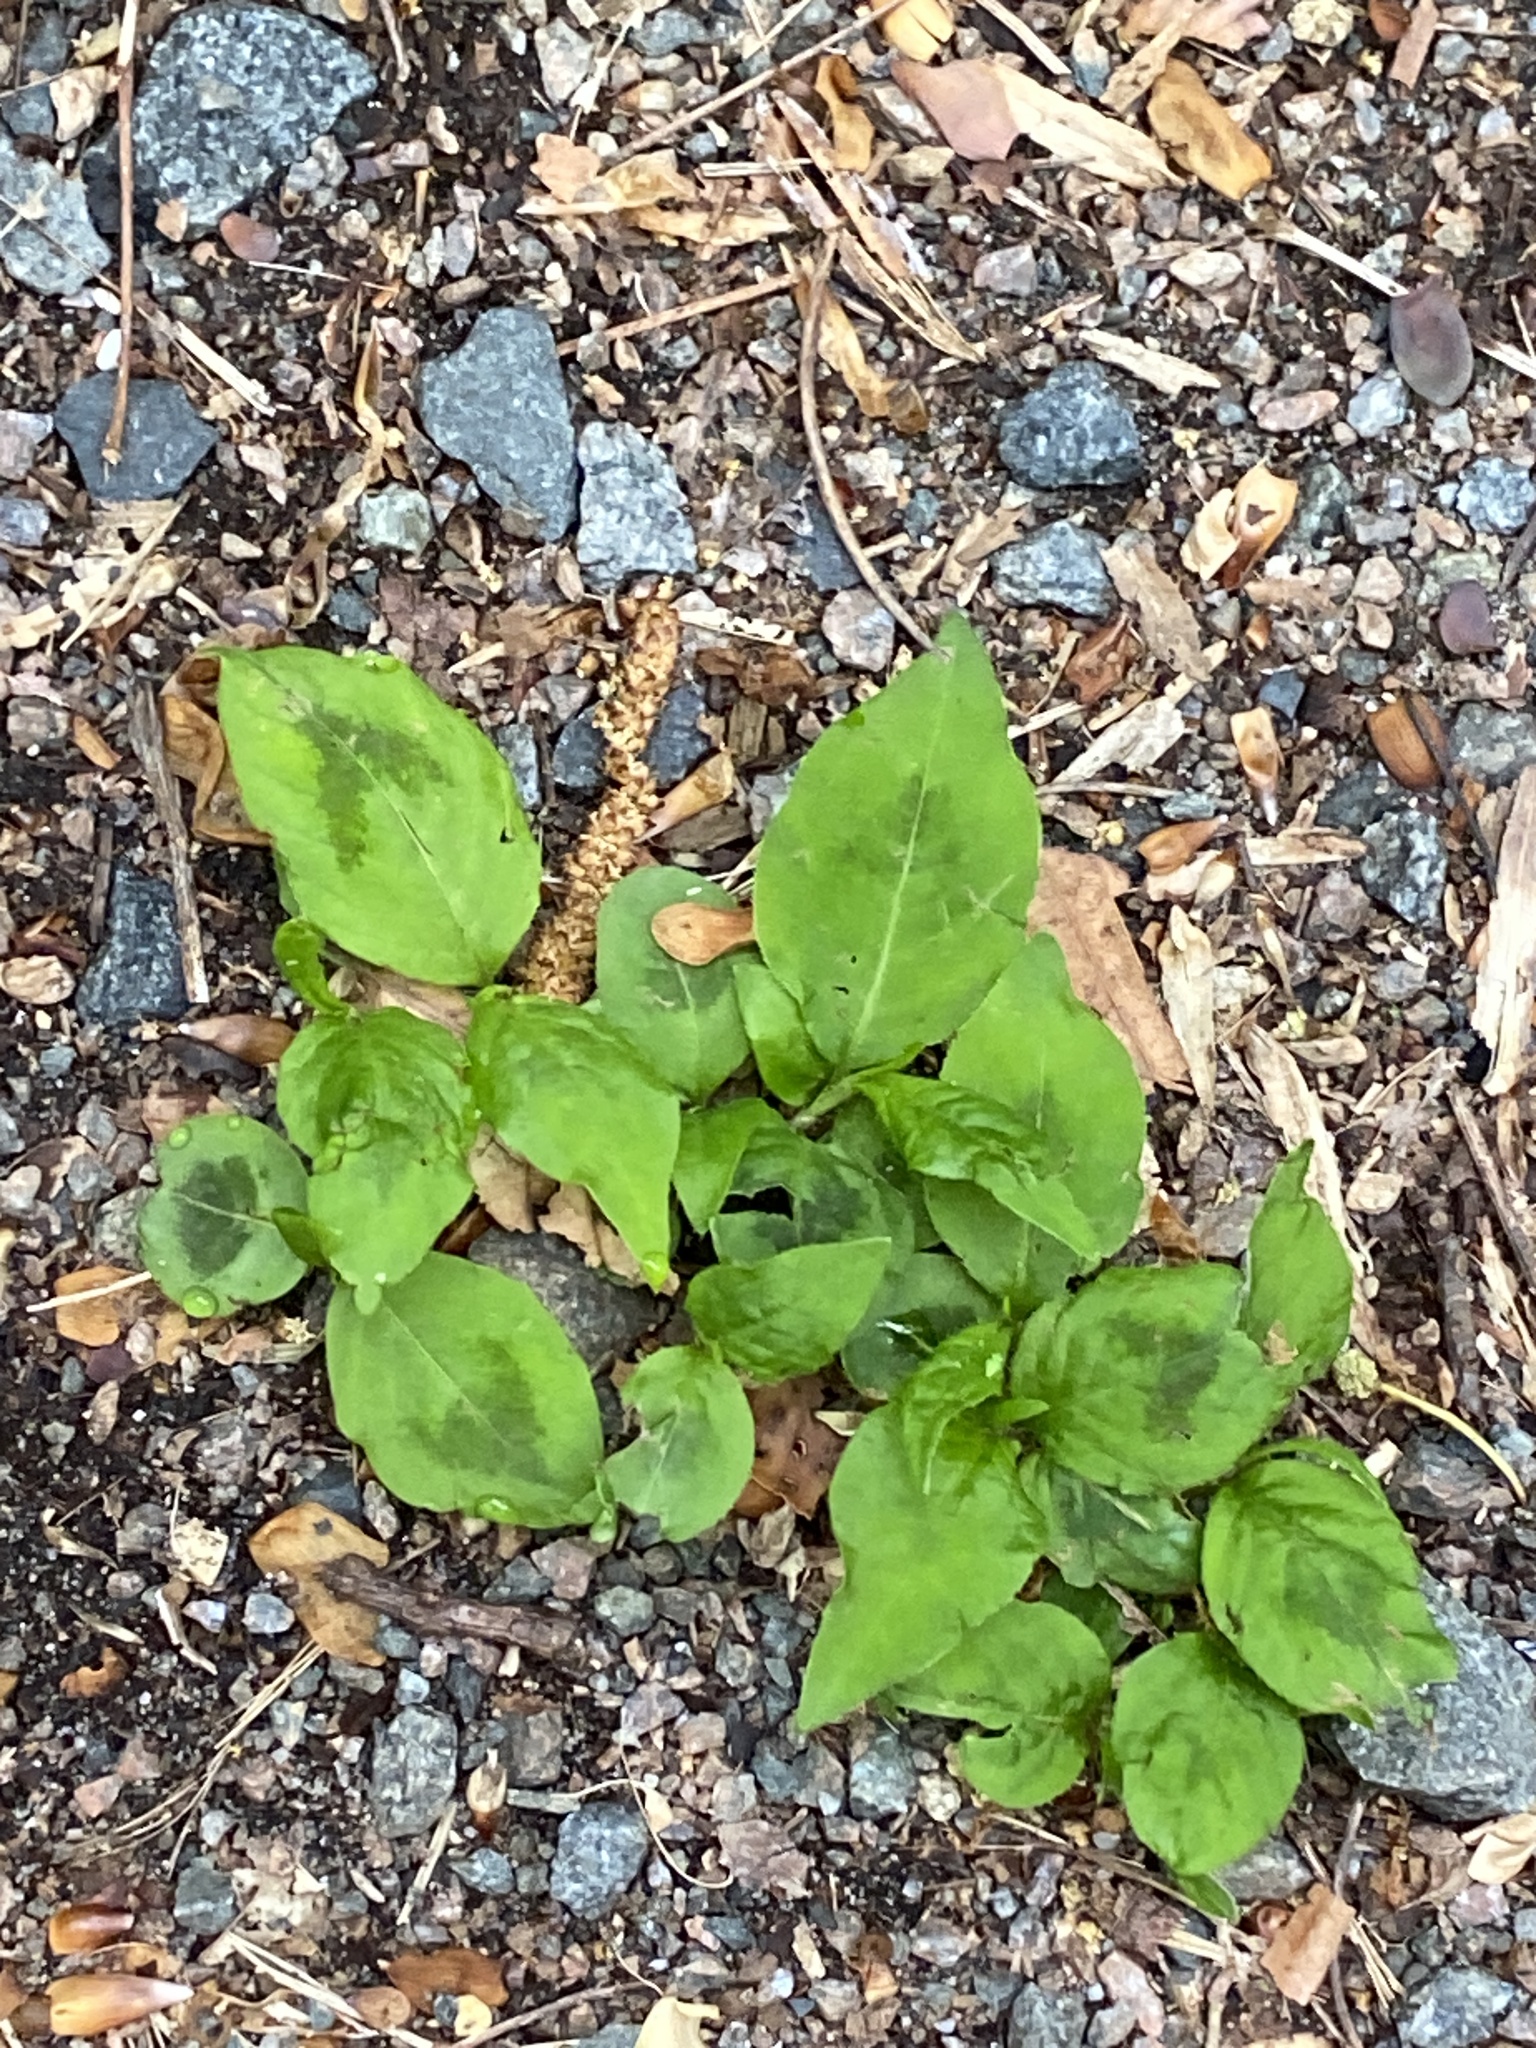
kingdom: Plantae
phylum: Tracheophyta
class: Magnoliopsida
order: Caryophyllales
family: Polygonaceae
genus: Persicaria
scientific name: Persicaria virginiana
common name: Jumpseed
